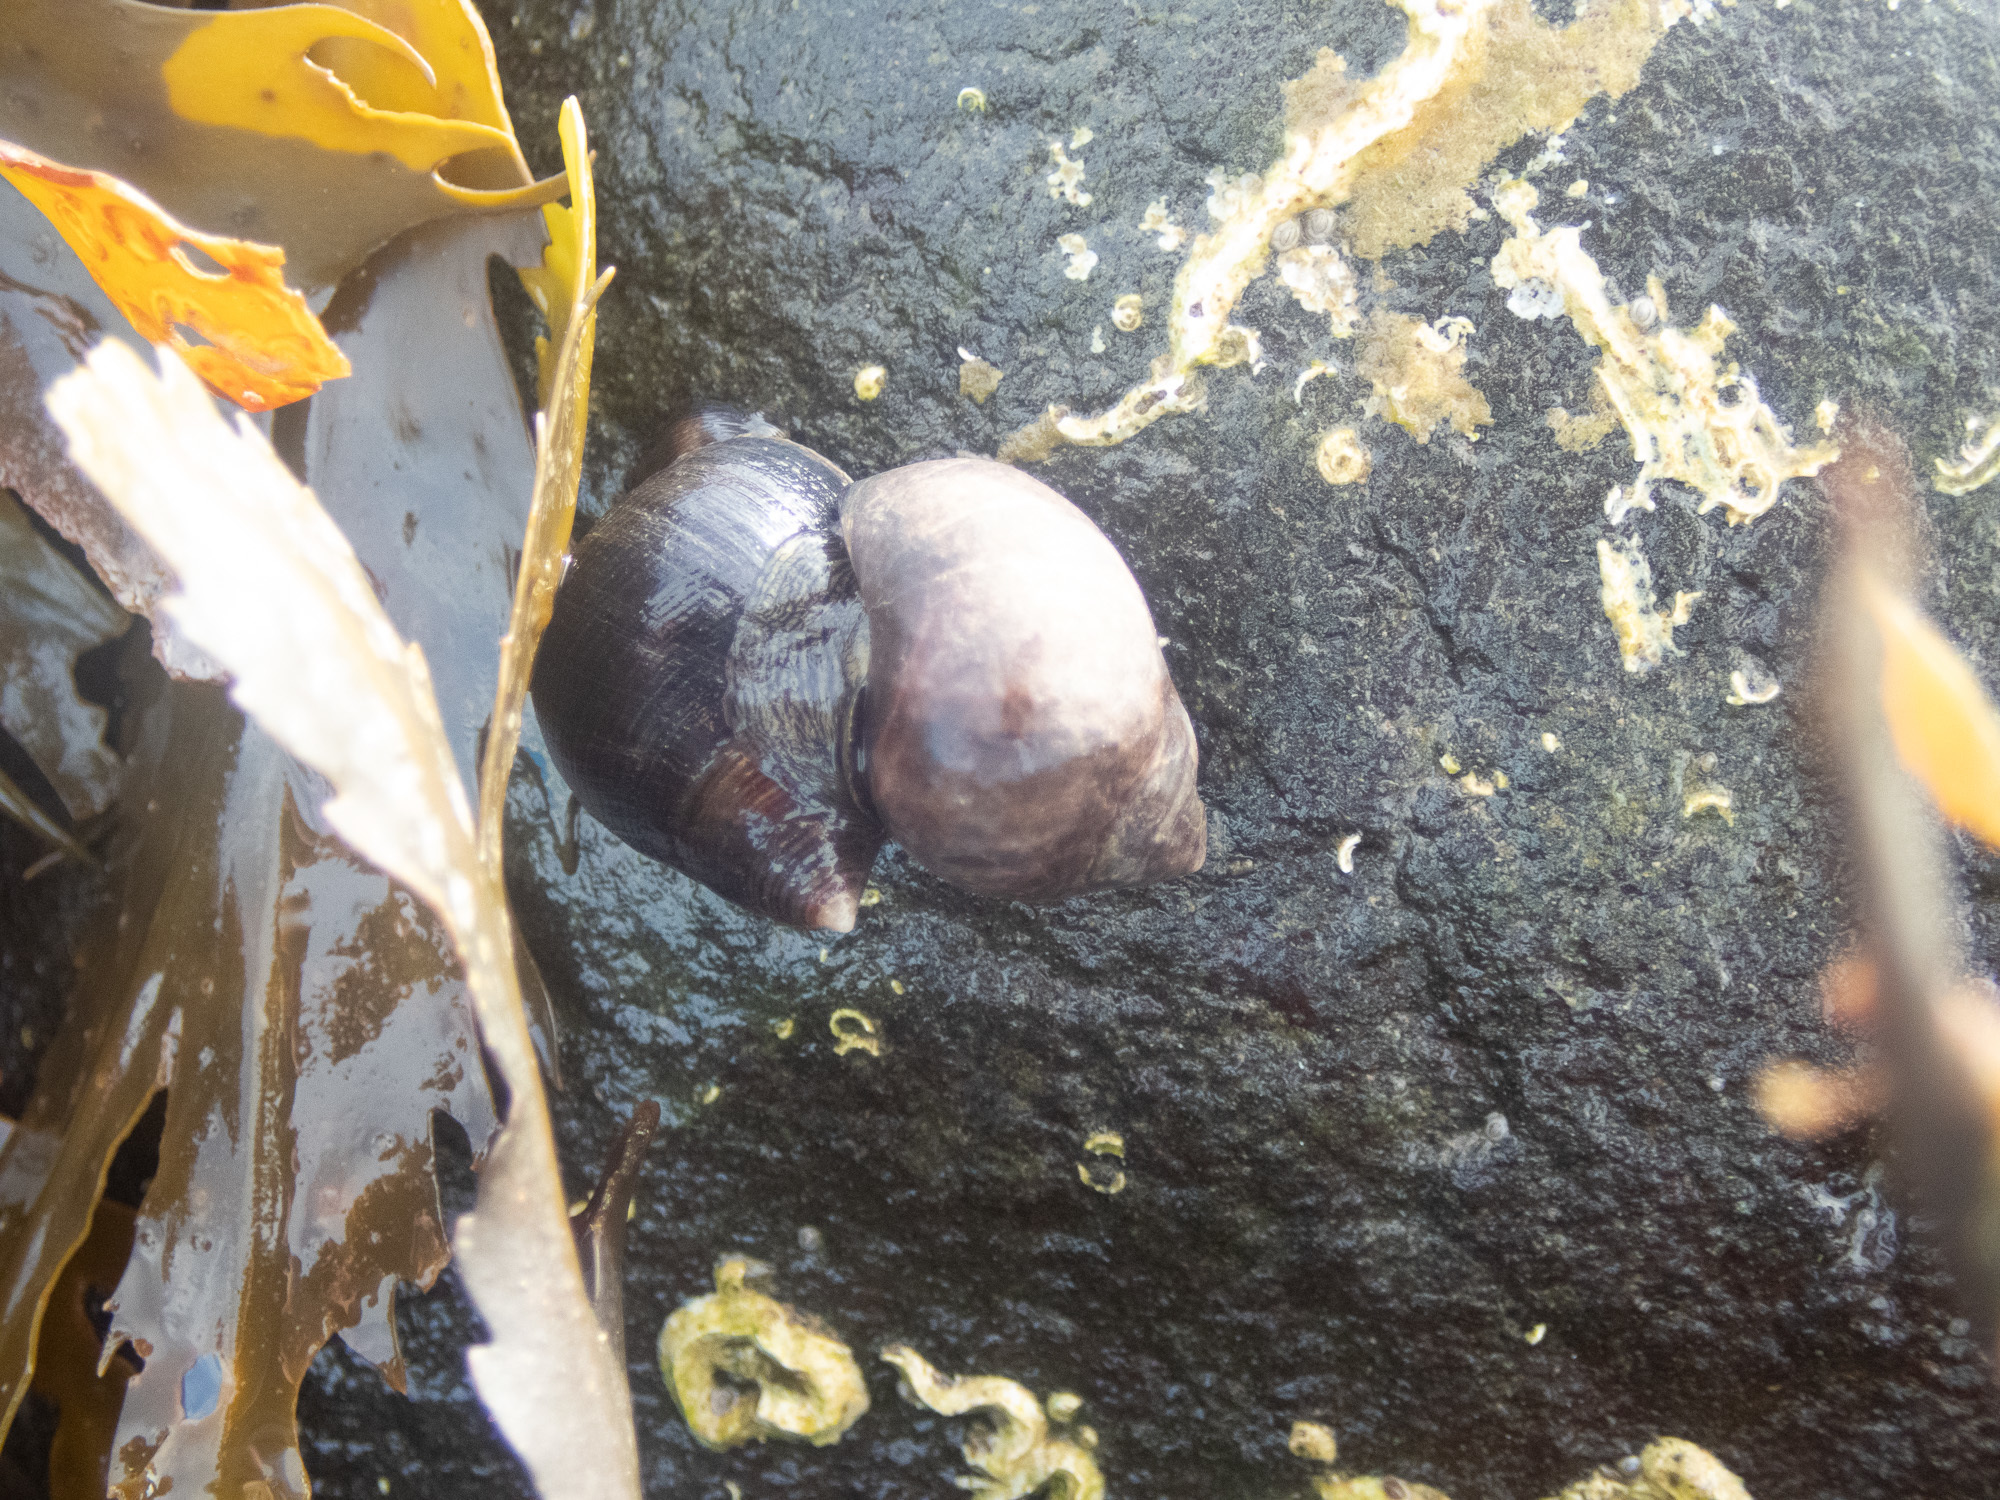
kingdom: Animalia
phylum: Mollusca
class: Gastropoda
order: Littorinimorpha
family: Littorinidae
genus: Littorina
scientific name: Littorina littorea
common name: Common periwinkle
